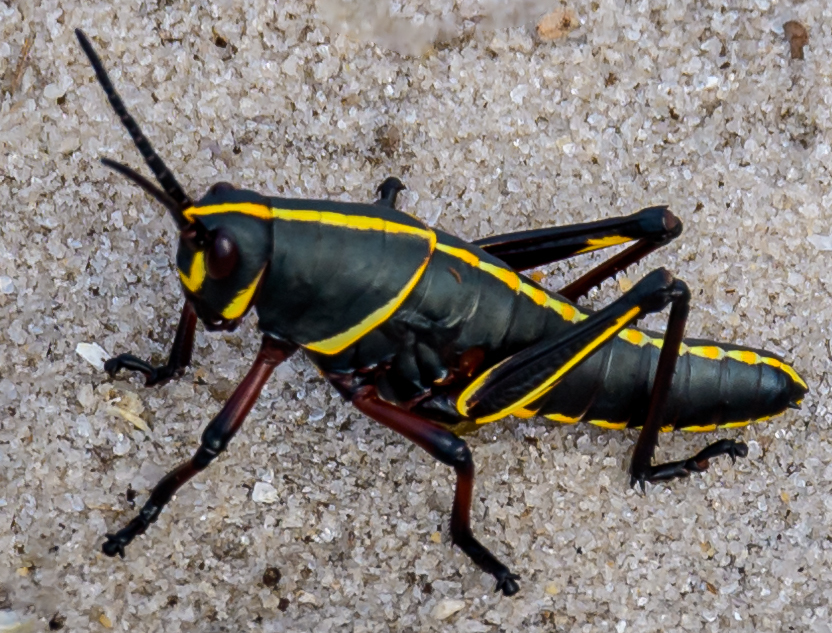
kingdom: Animalia
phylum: Arthropoda
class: Insecta
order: Orthoptera
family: Romaleidae
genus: Romalea
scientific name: Romalea microptera
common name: Eastern lubber grasshopper
